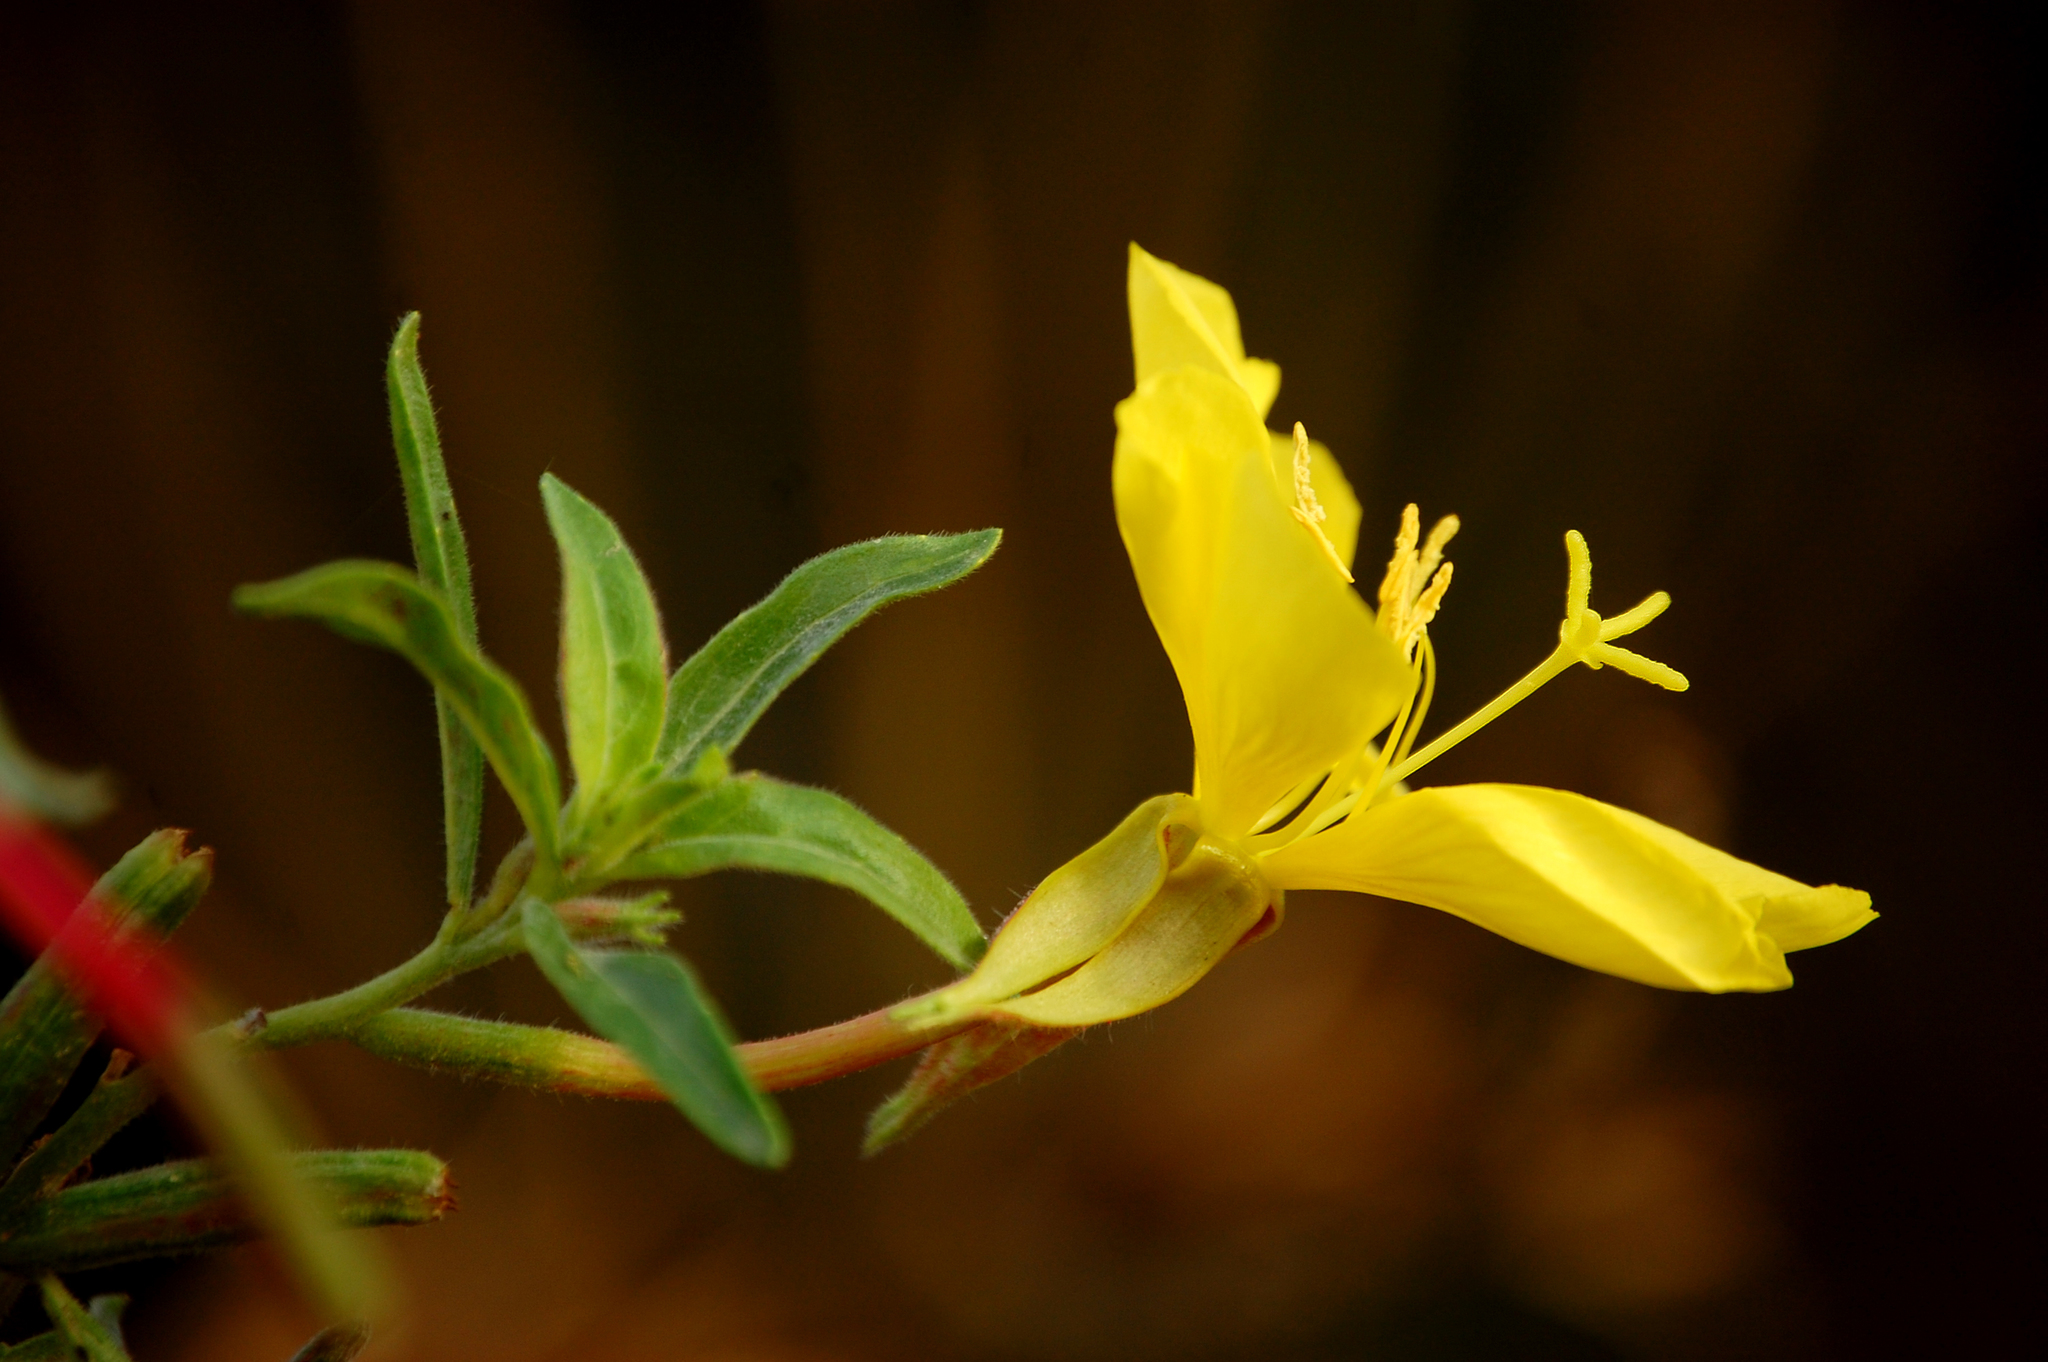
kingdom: Plantae
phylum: Tracheophyta
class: Magnoliopsida
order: Myrtales
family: Onagraceae
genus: Oenothera
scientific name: Oenothera elata
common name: Hooker's evening-primrose
